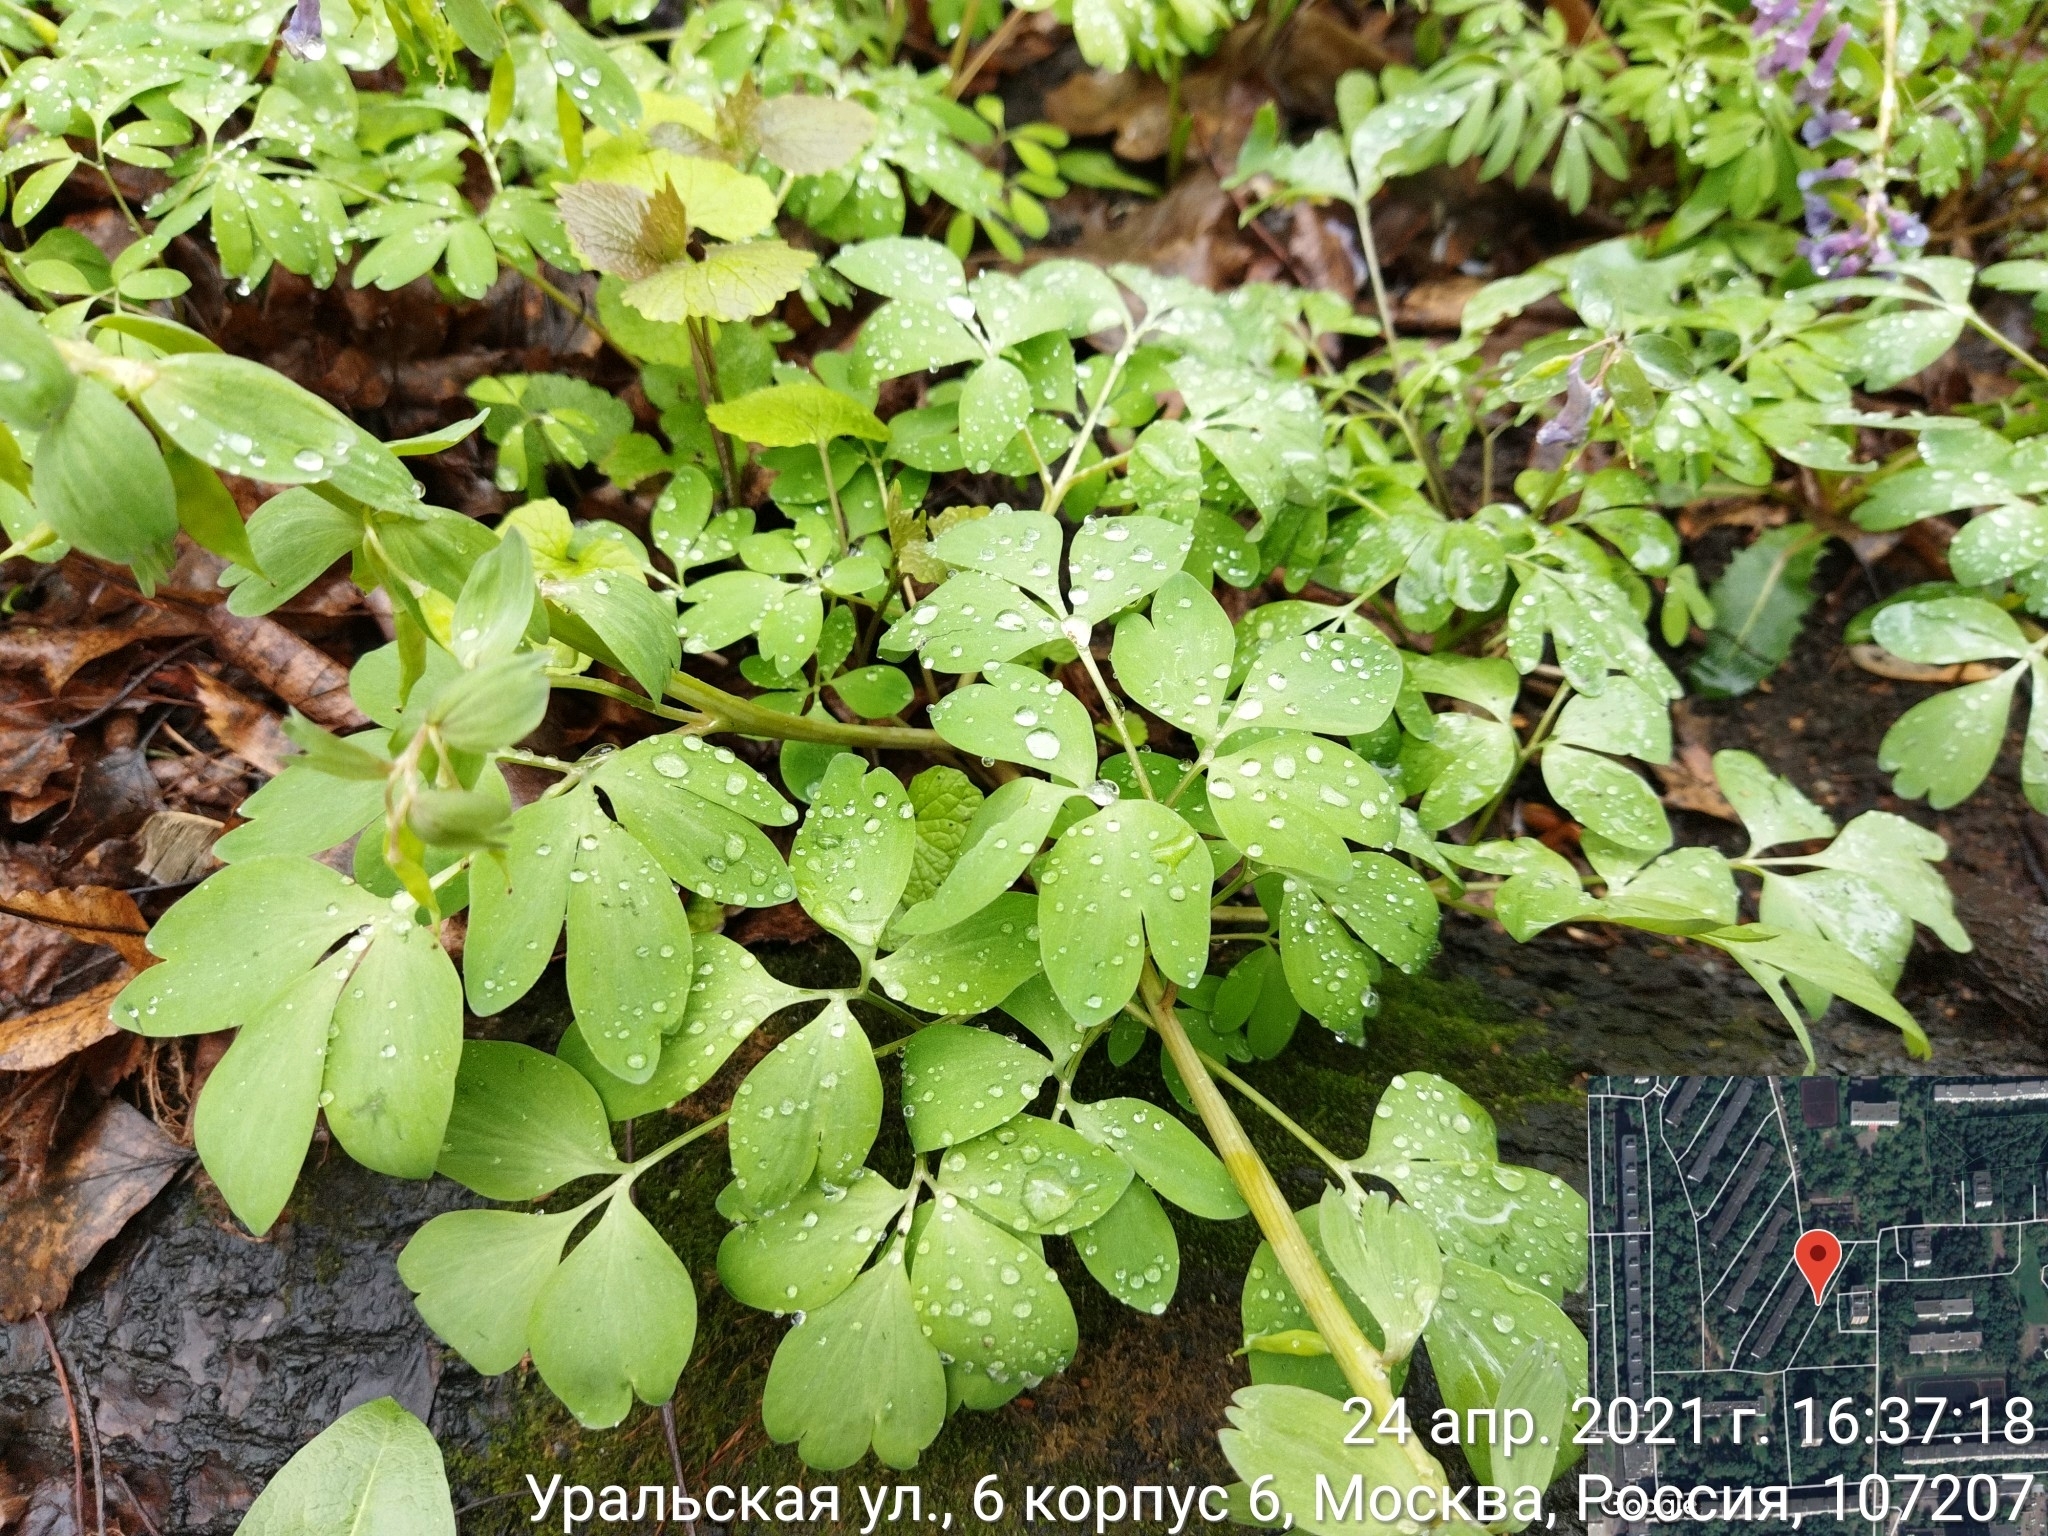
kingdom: Plantae
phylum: Tracheophyta
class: Magnoliopsida
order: Ranunculales
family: Papaveraceae
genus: Corydalis
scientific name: Corydalis solida
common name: Bird-in-a-bush
